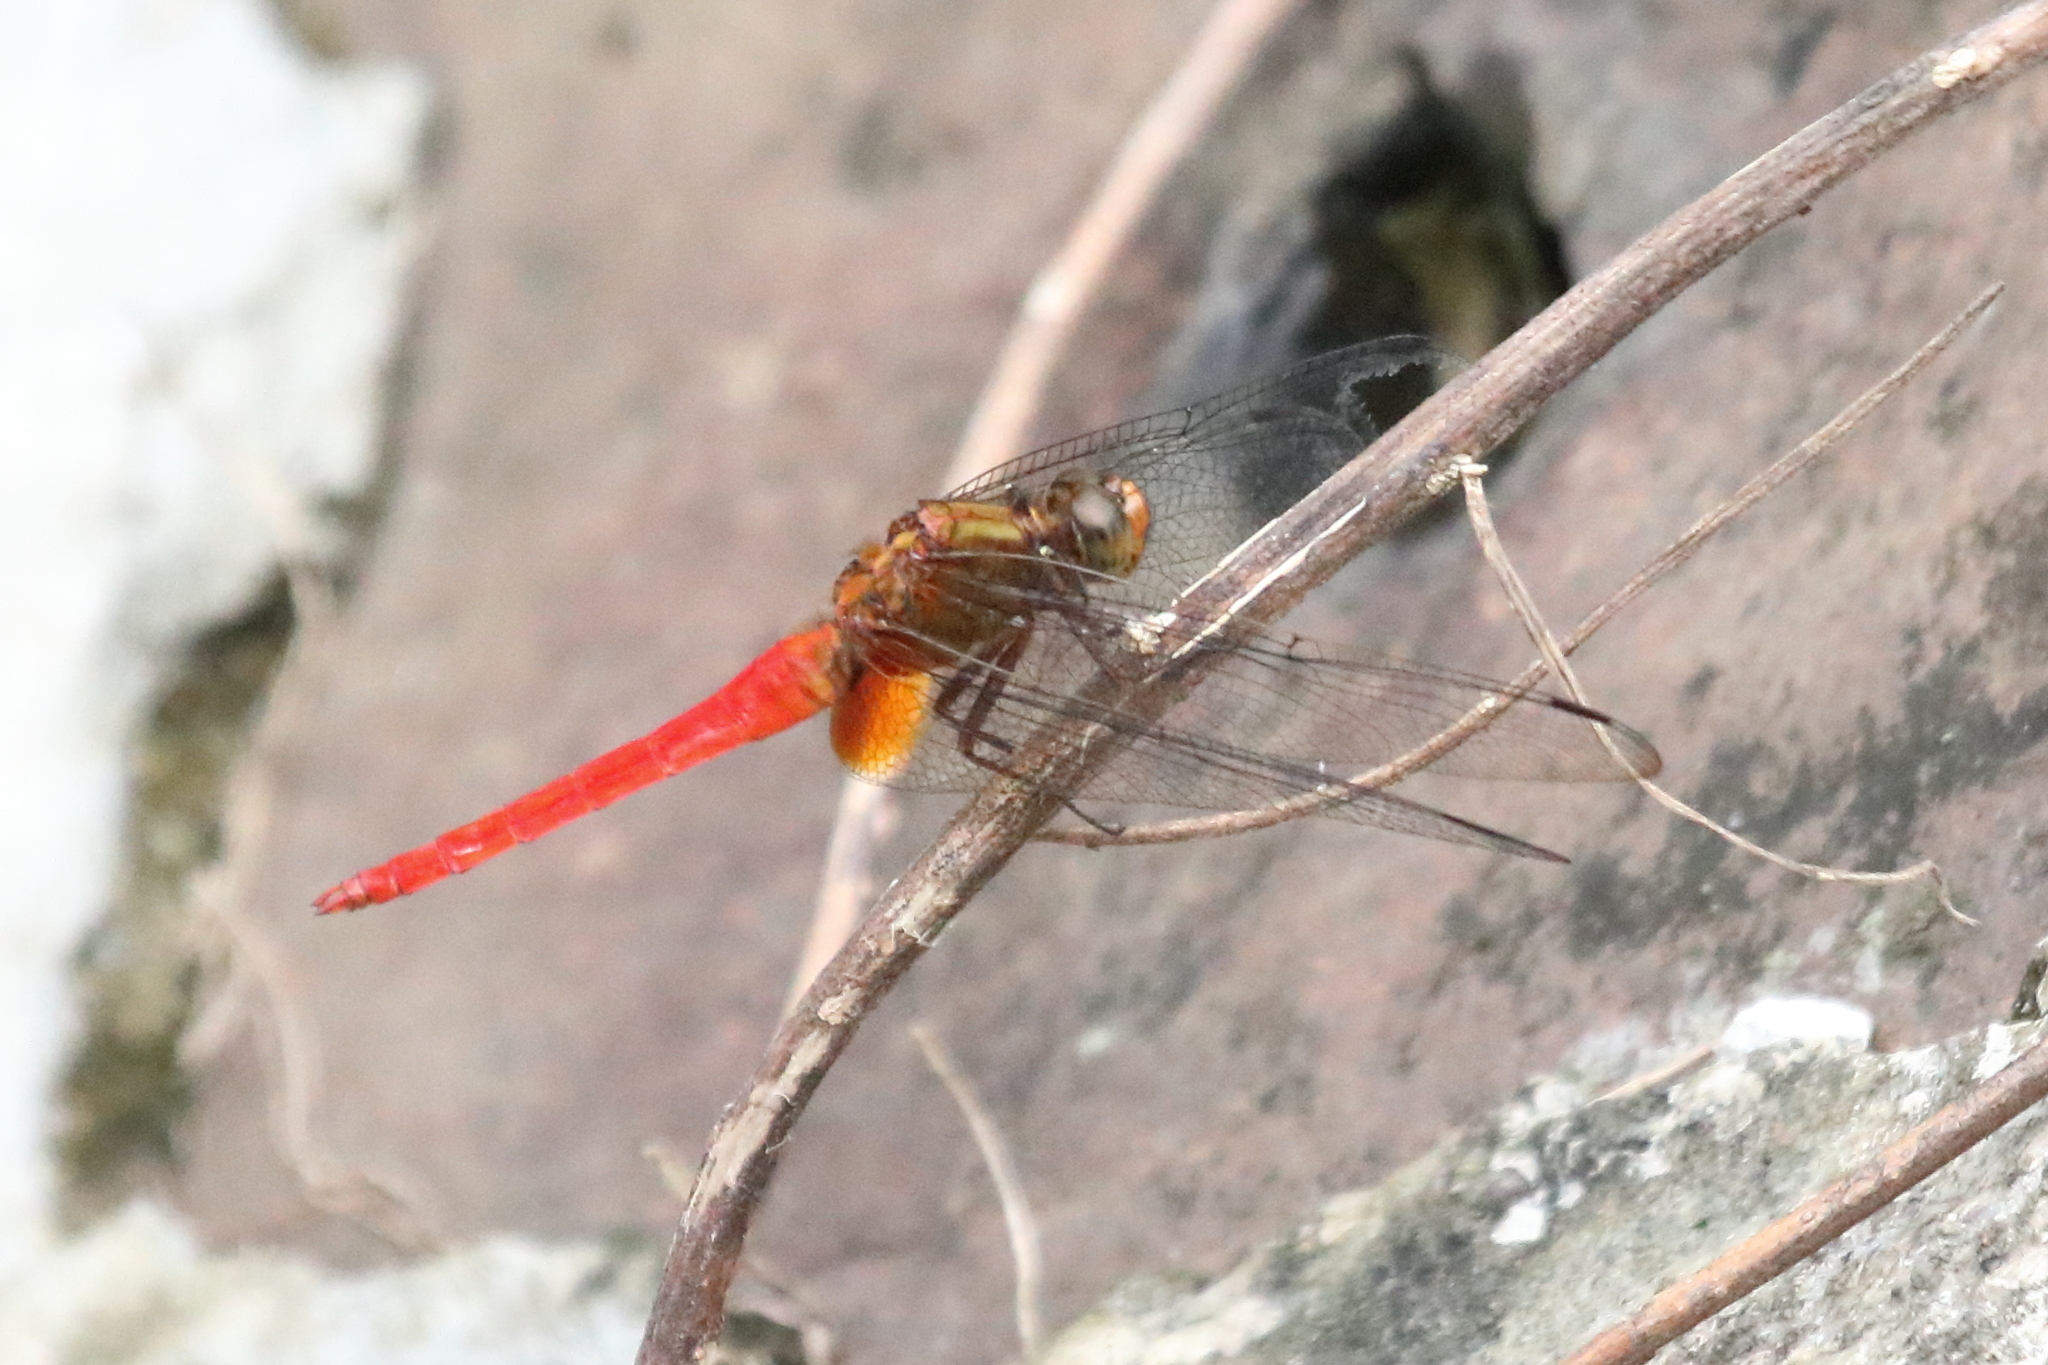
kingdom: Animalia
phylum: Arthropoda
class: Insecta
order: Odonata
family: Libellulidae
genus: Orthetrum
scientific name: Orthetrum testaceum
